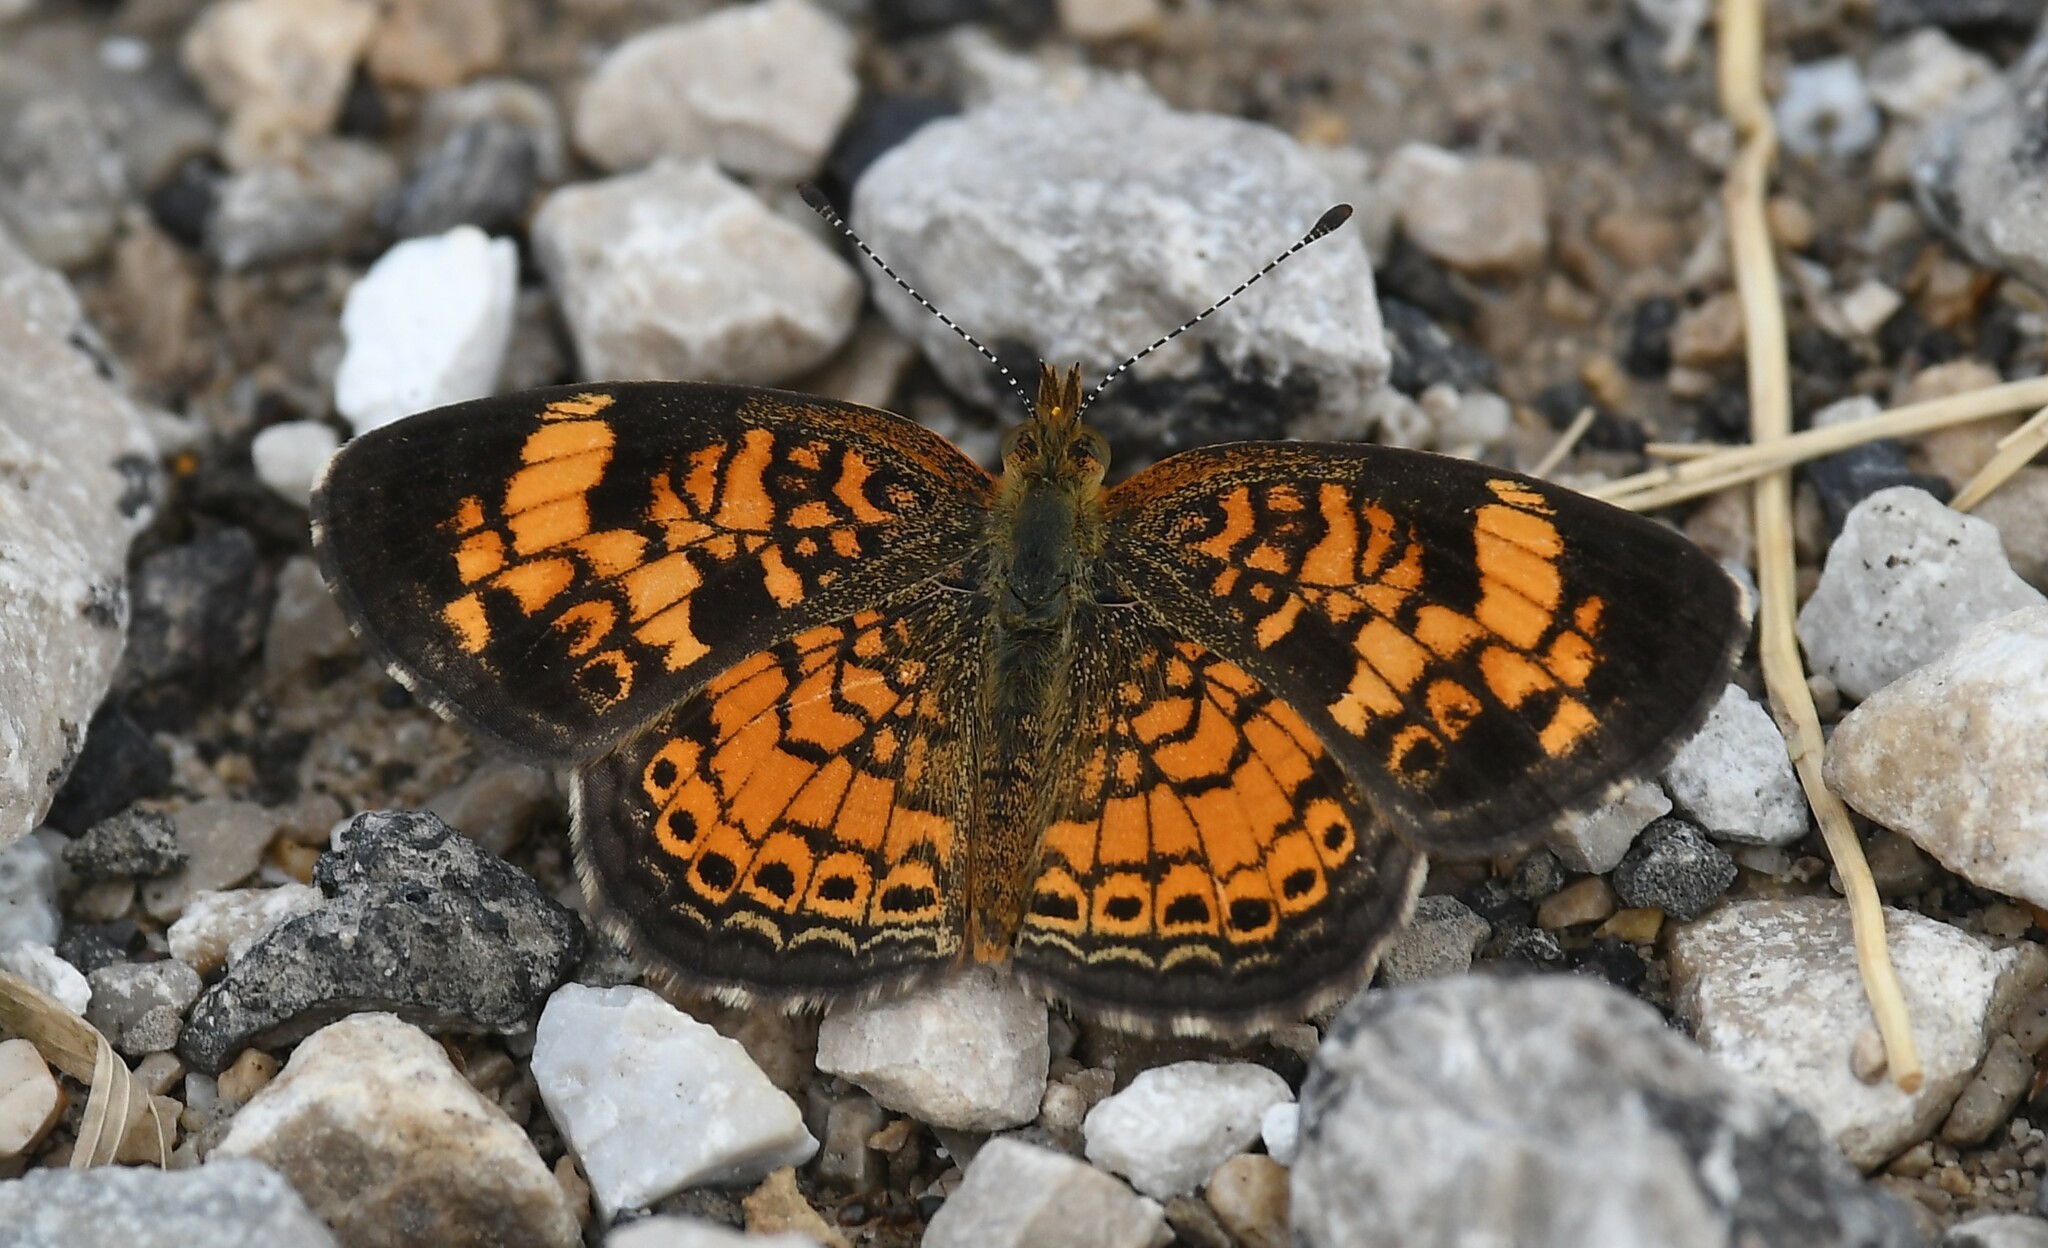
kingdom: Animalia
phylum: Arthropoda
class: Insecta
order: Lepidoptera
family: Nymphalidae
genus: Phyciodes
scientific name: Phyciodes tharos
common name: Pearl crescent
